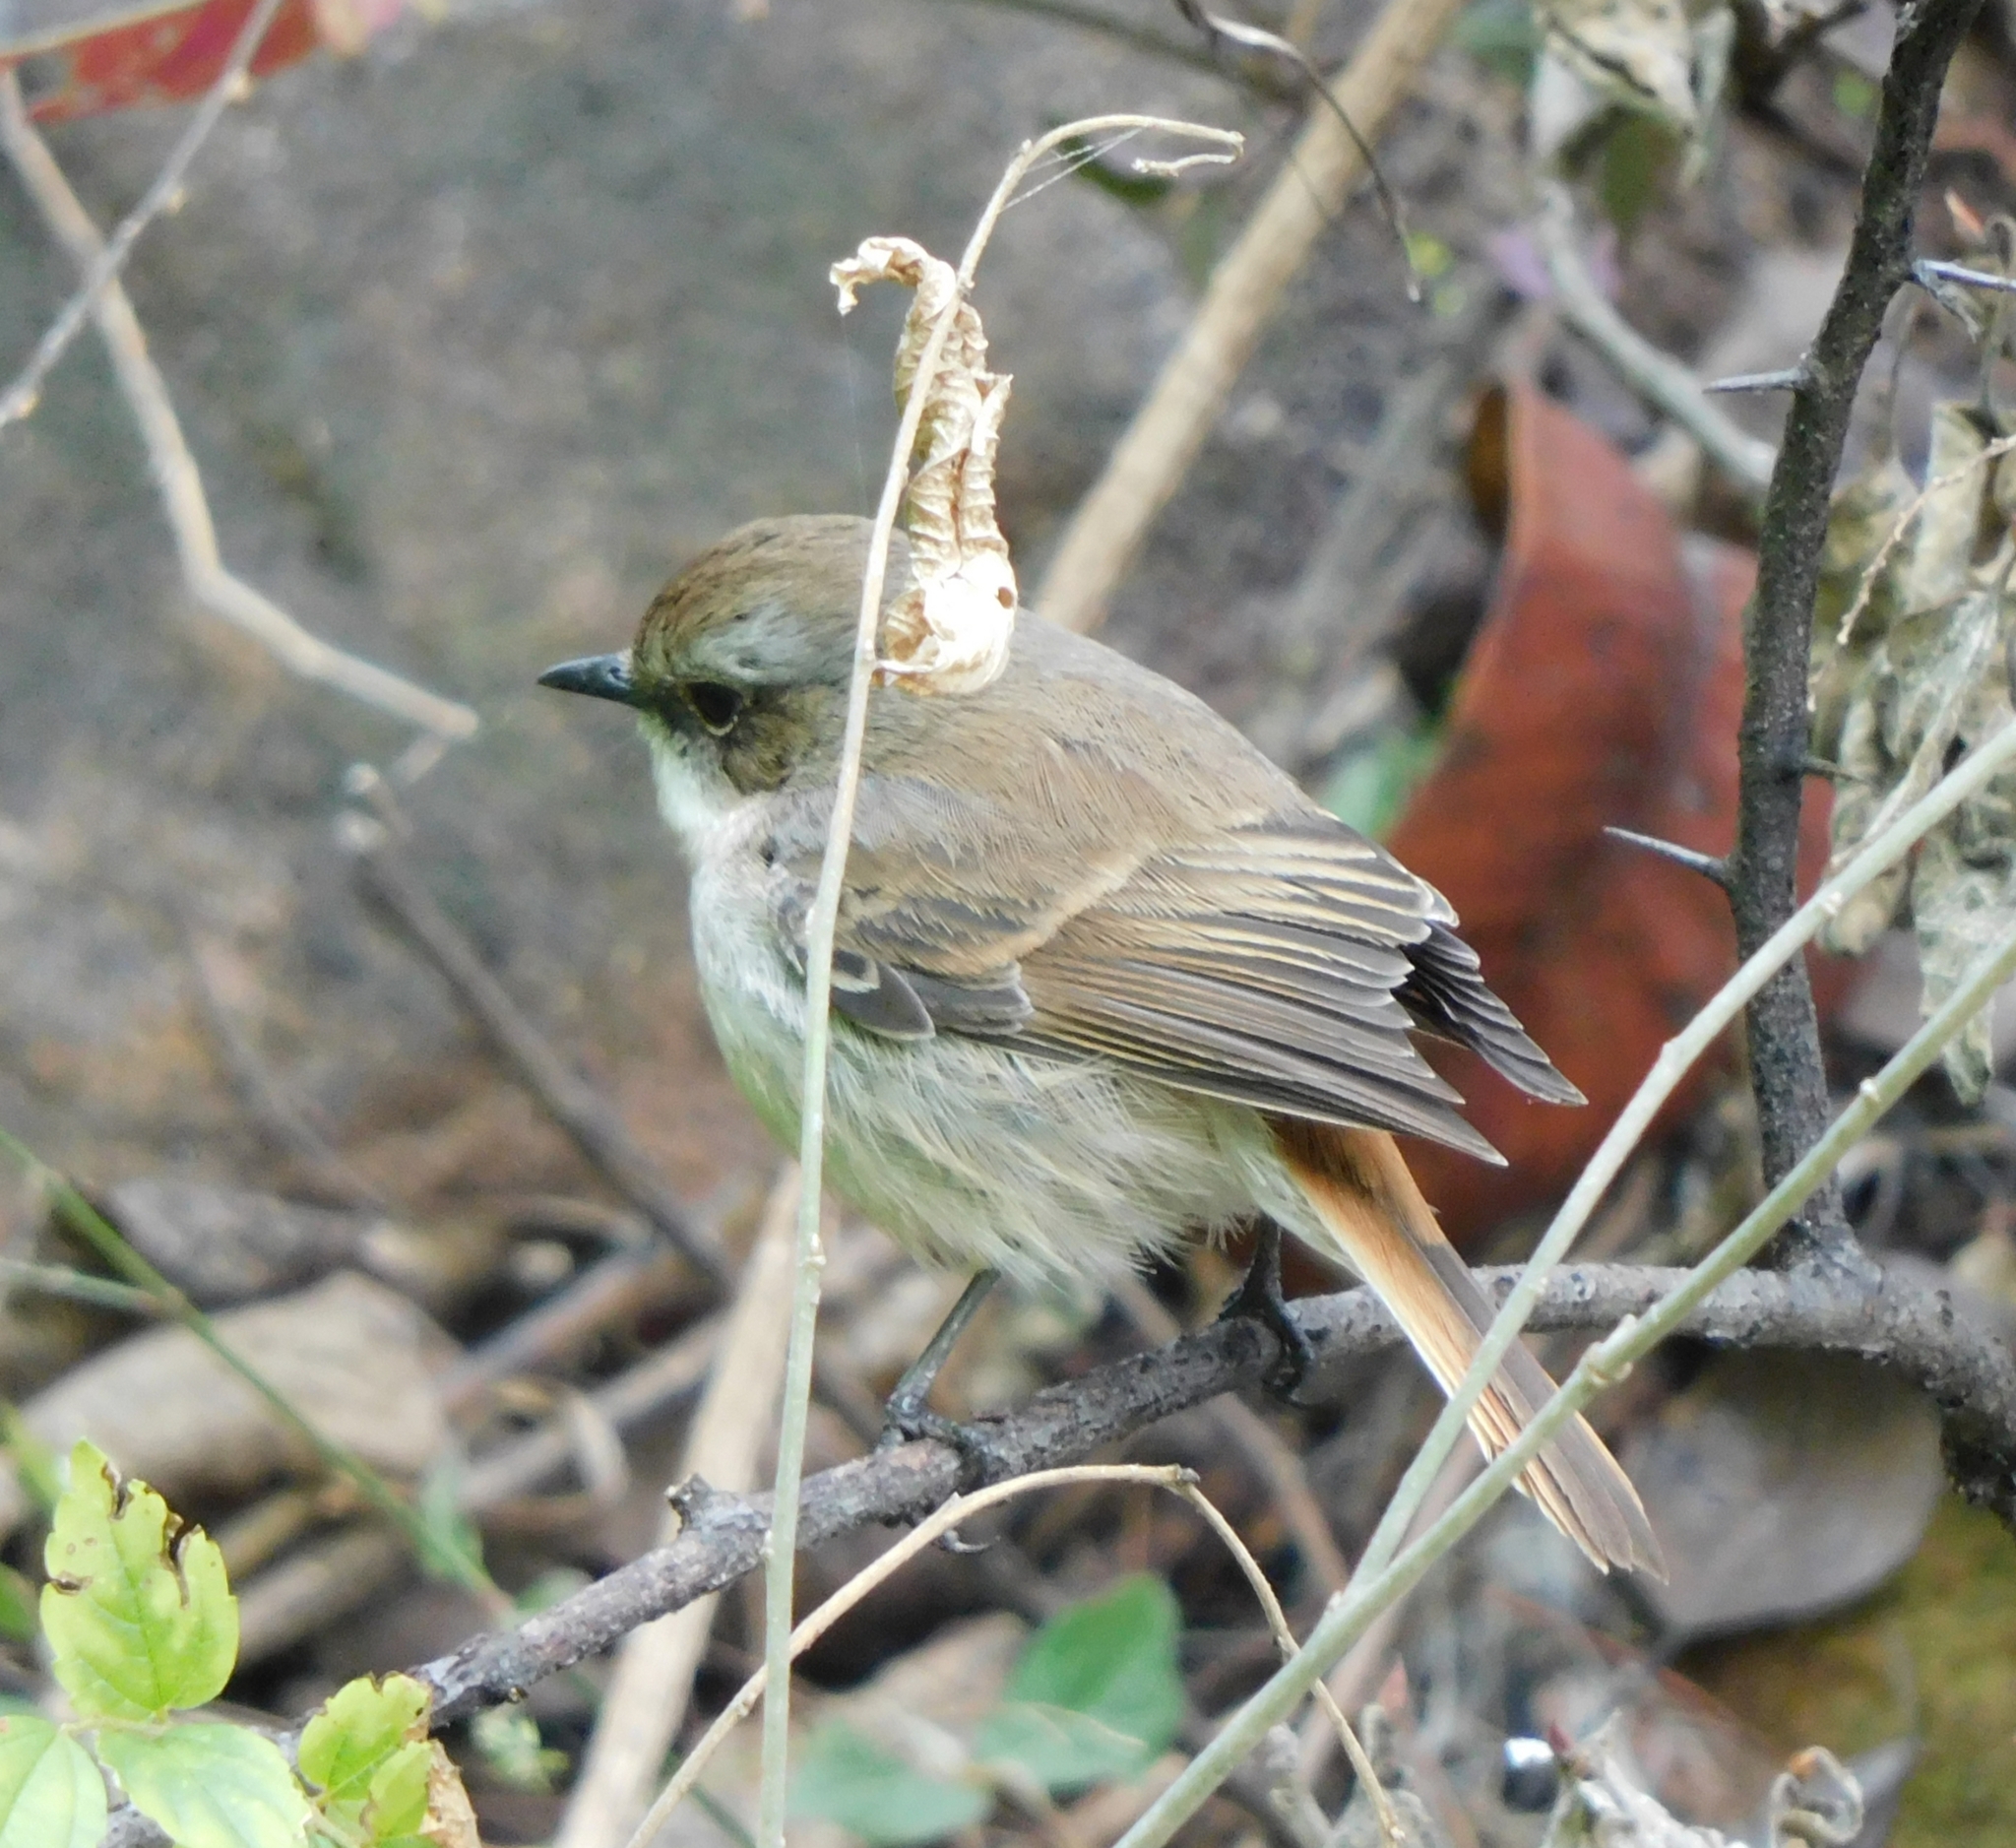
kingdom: Animalia
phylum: Chordata
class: Aves
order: Passeriformes
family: Muscicapidae
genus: Saxicola
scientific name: Saxicola ferreus
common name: Grey bush chat
